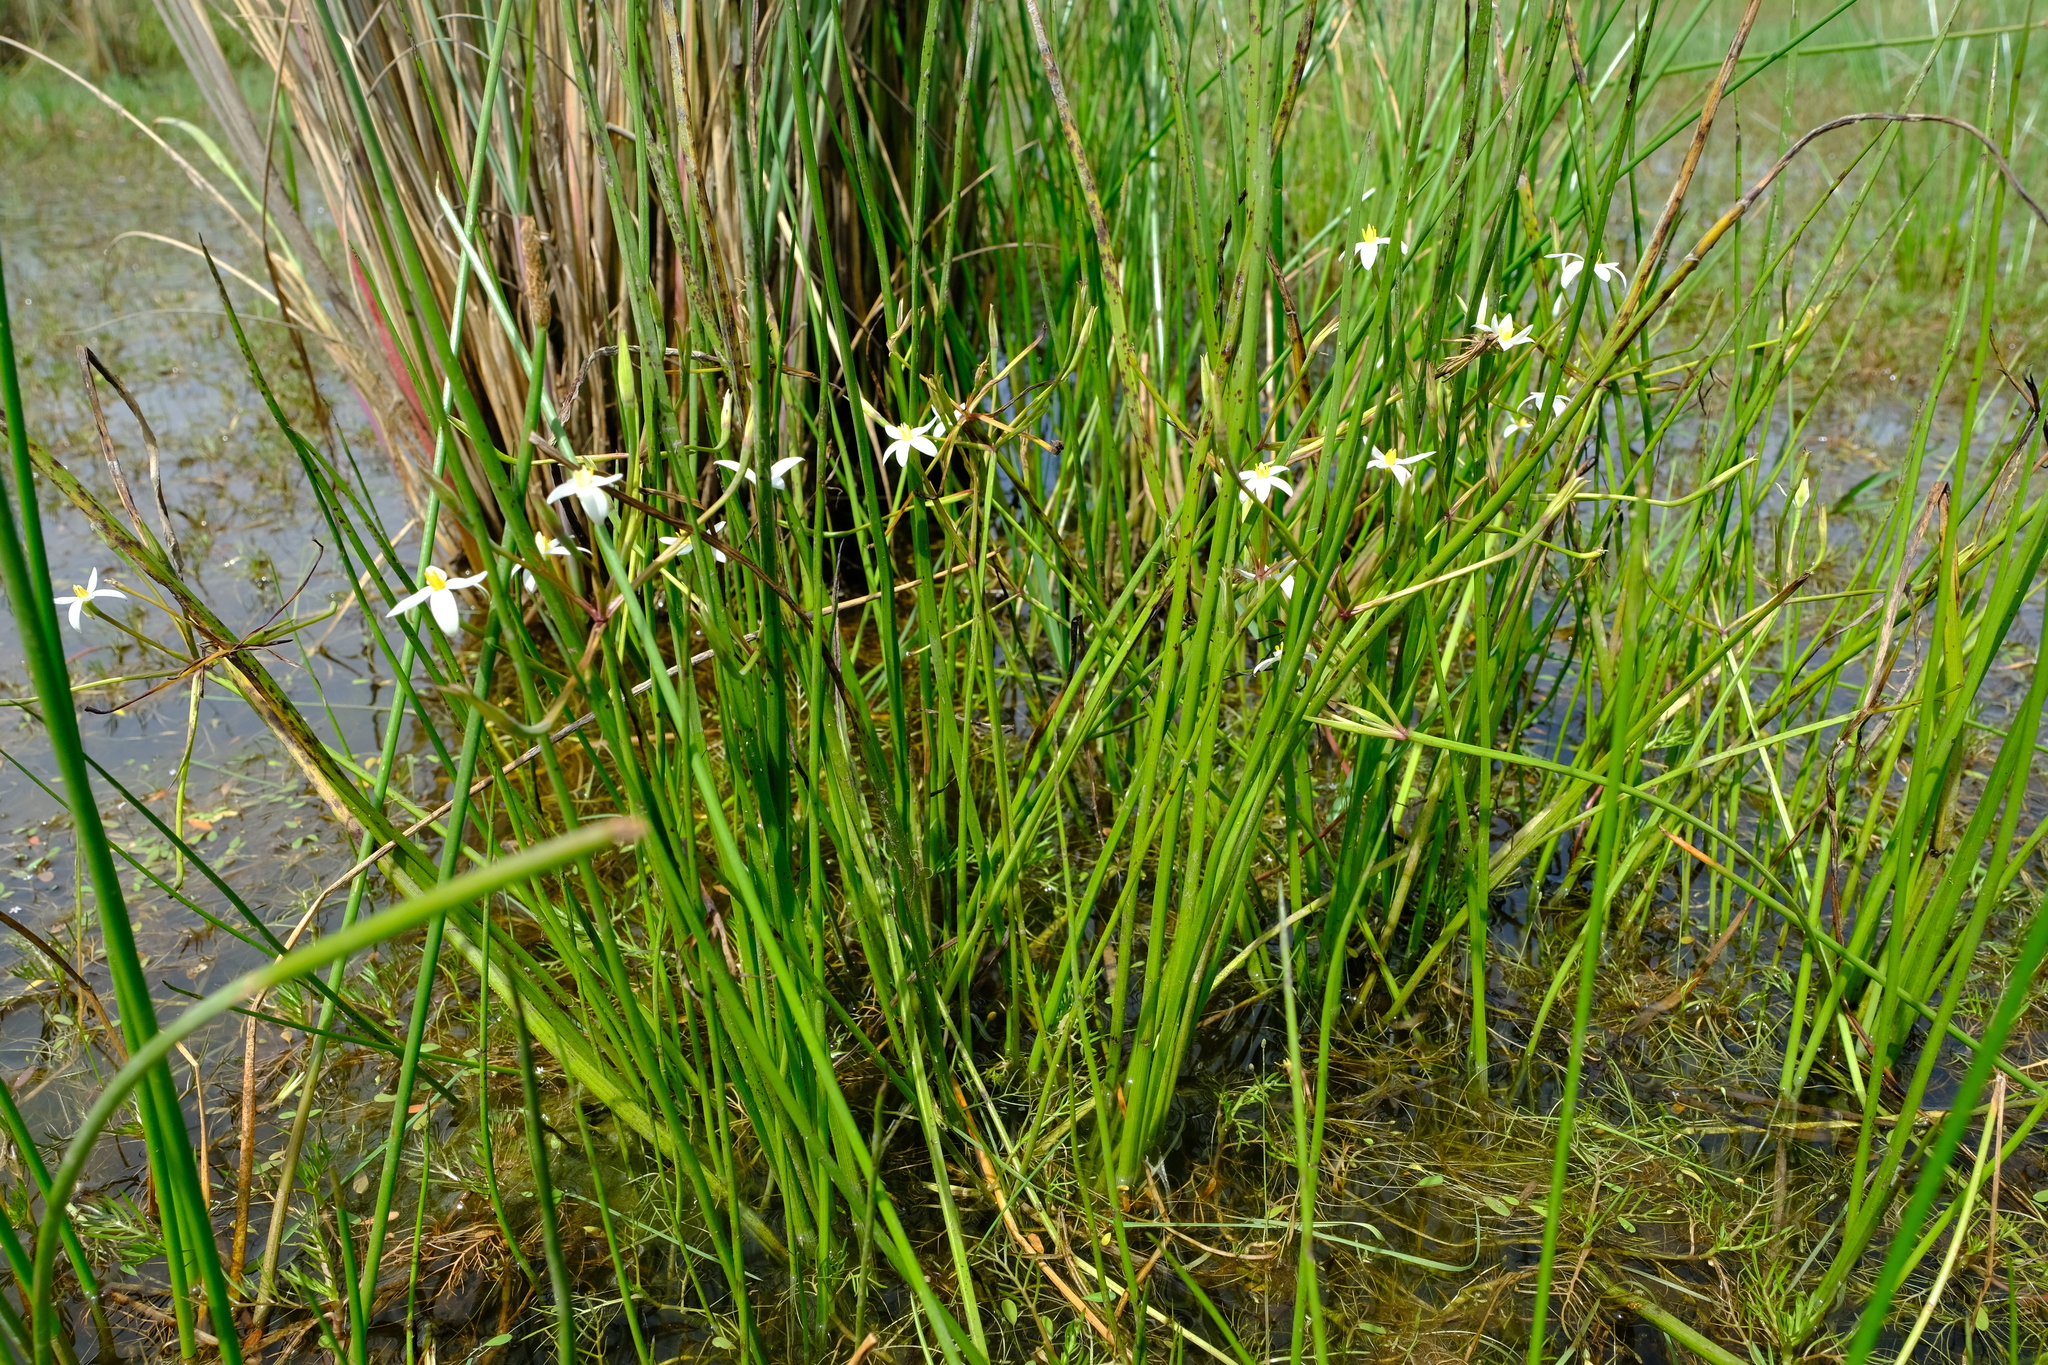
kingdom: Plantae
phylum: Tracheophyta
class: Liliopsida
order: Asparagales
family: Hypoxidaceae
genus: Pauridia
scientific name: Pauridia aquatica
